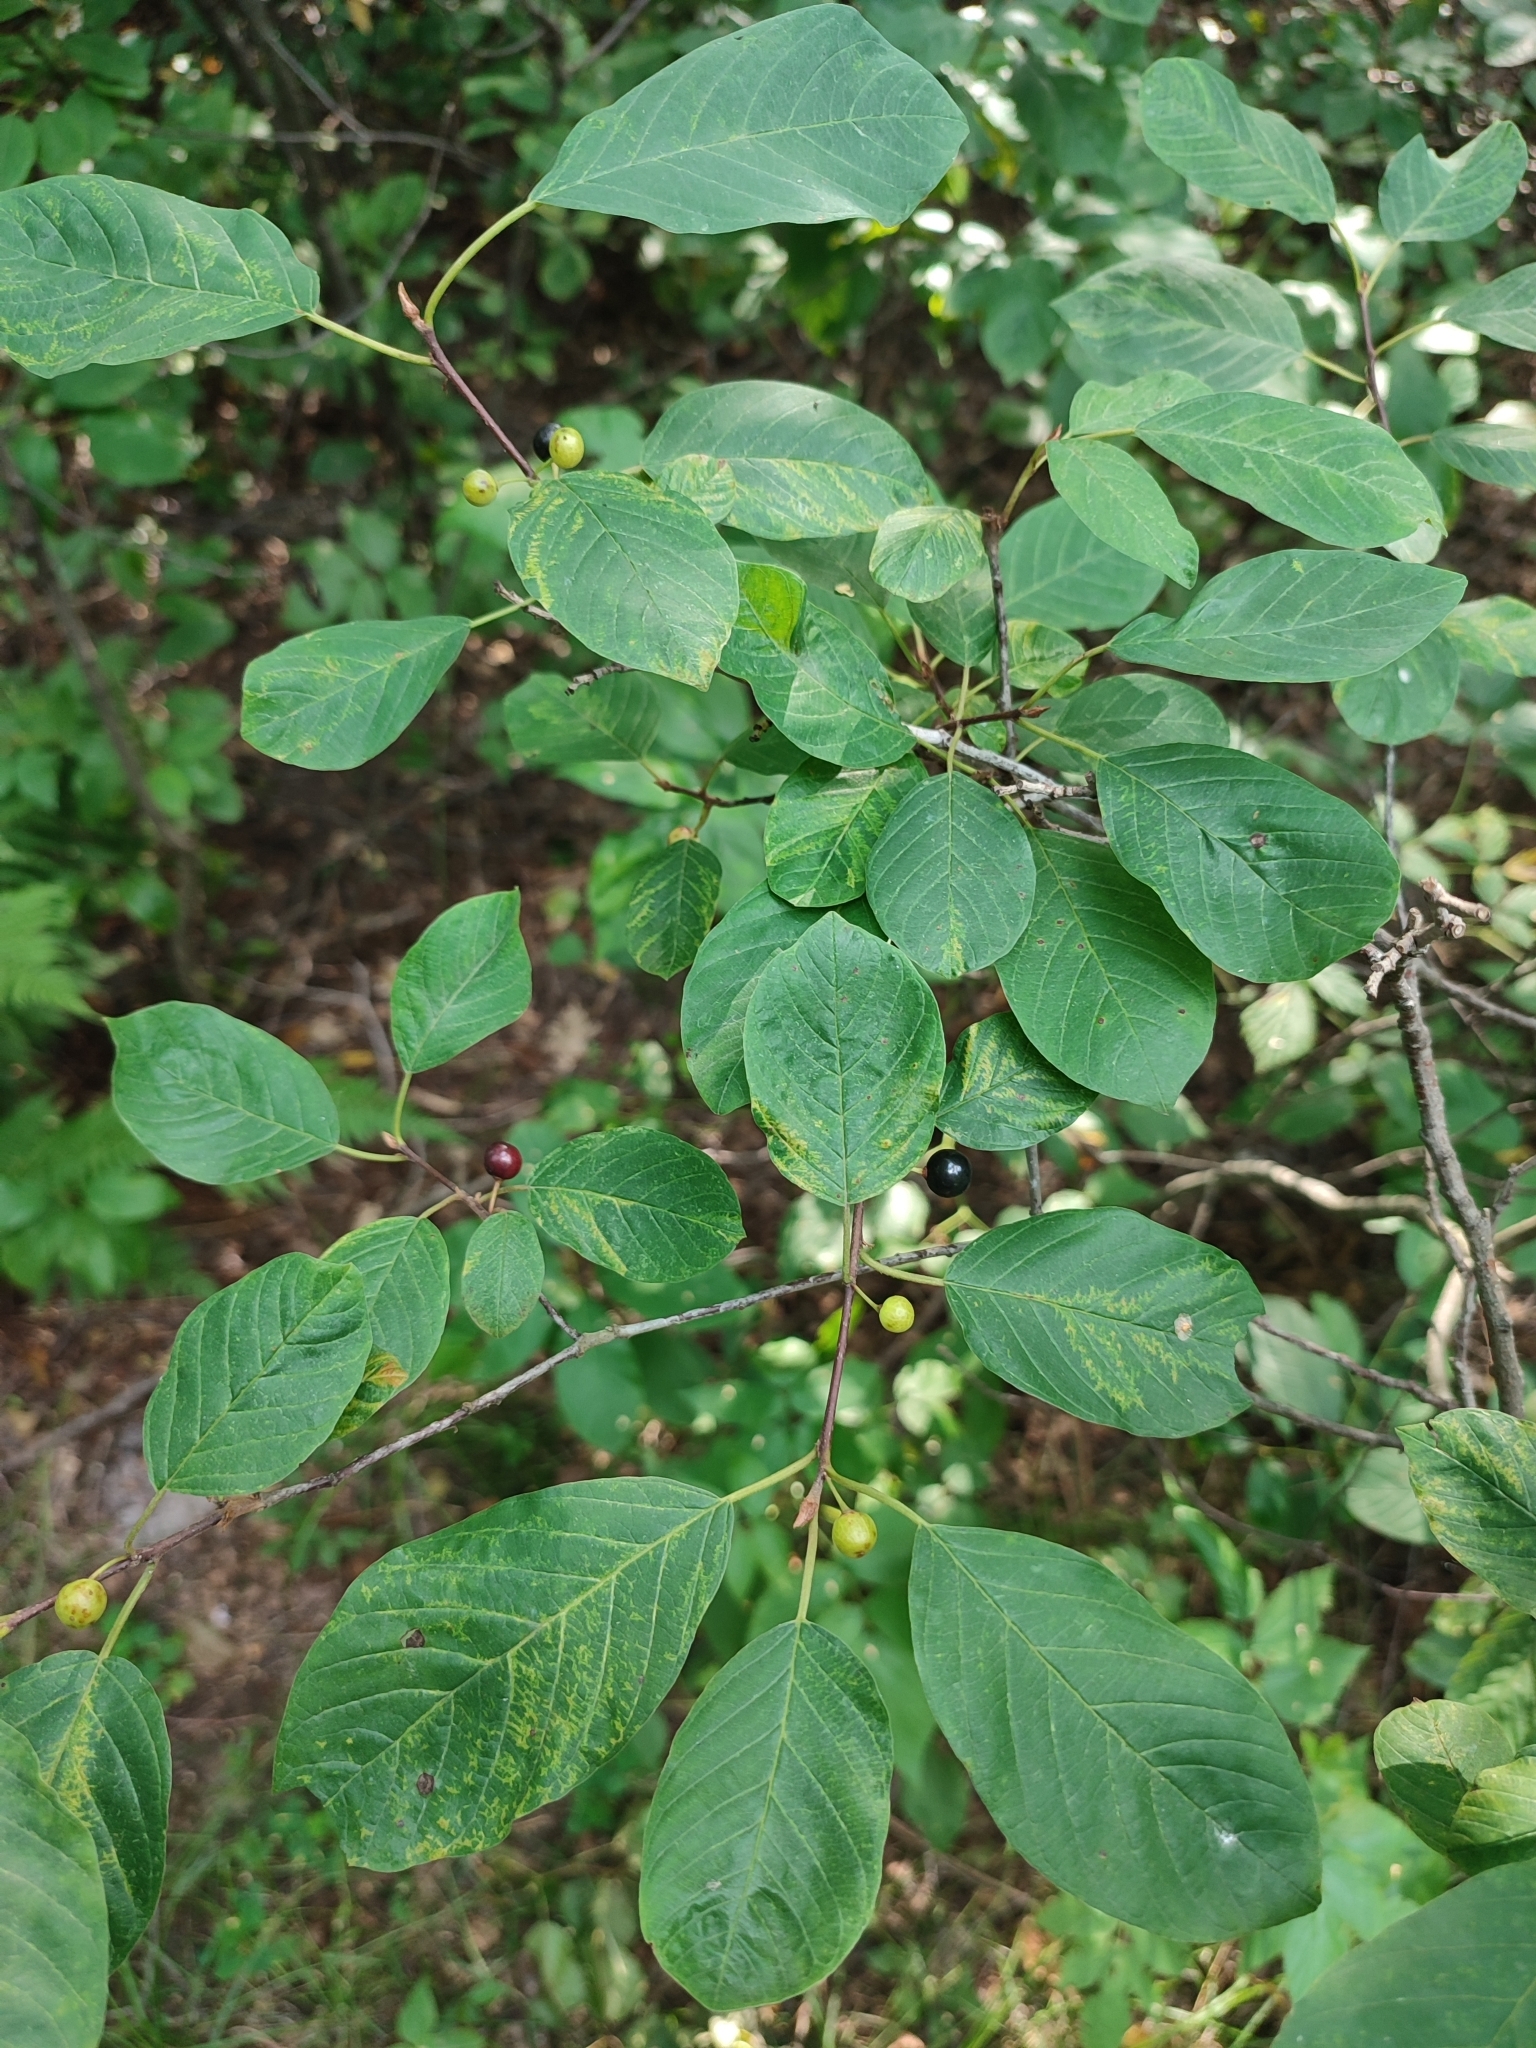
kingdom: Plantae
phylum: Tracheophyta
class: Magnoliopsida
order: Rosales
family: Rhamnaceae
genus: Frangula
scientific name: Frangula alnus
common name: Alder buckthorn
